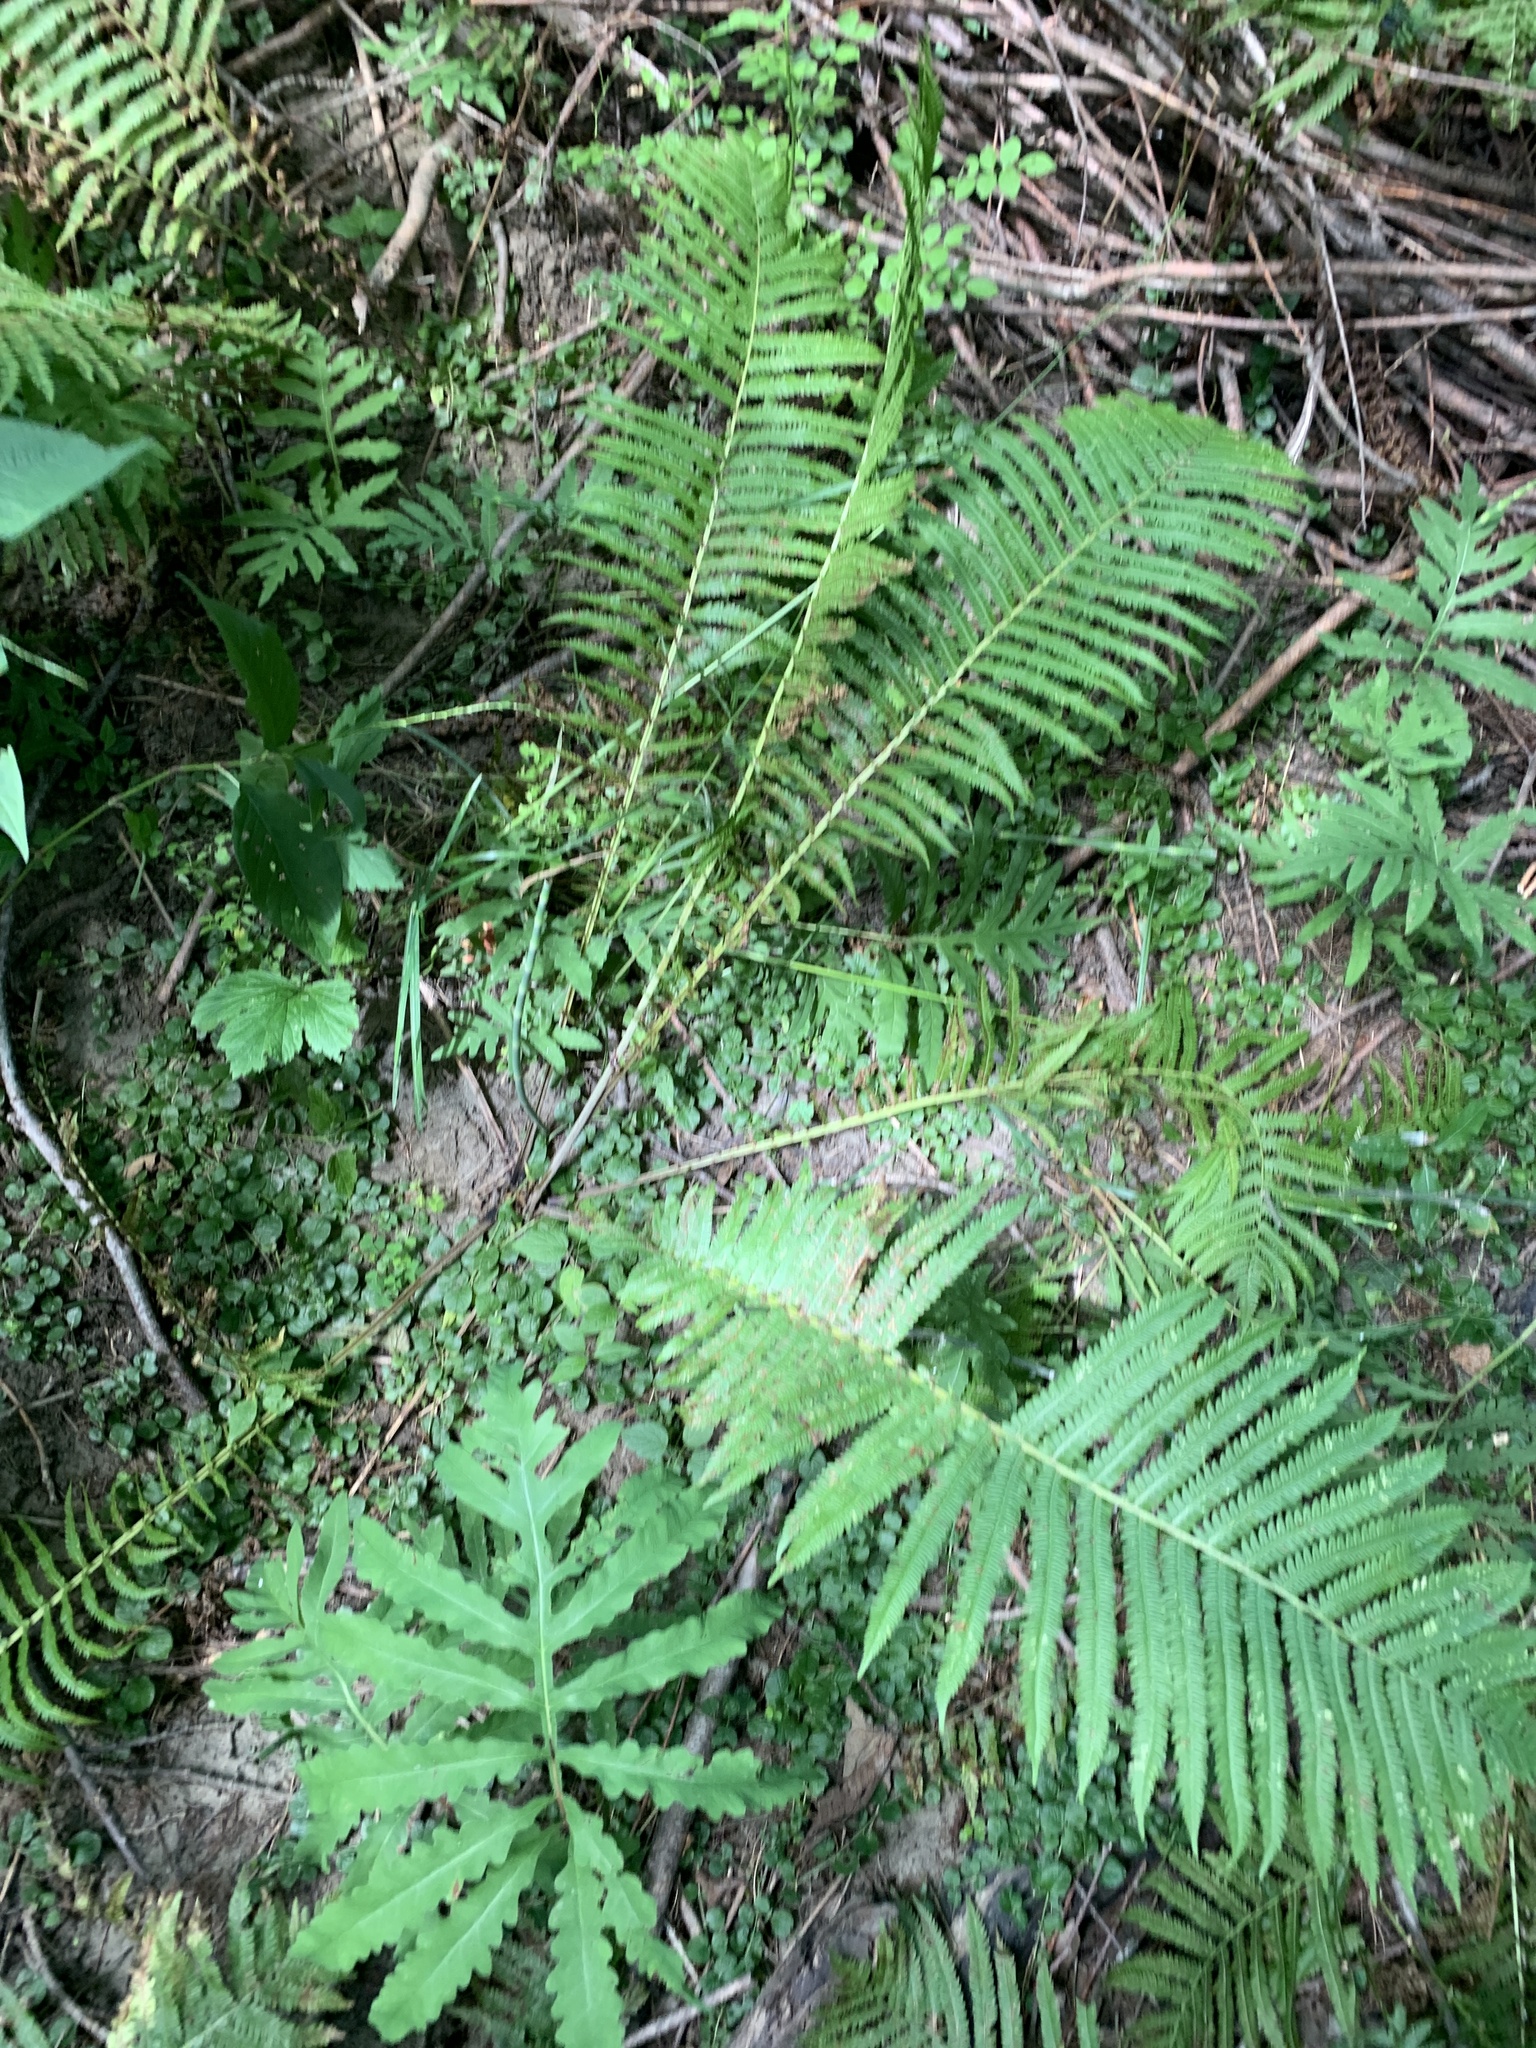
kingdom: Plantae
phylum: Tracheophyta
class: Polypodiopsida
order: Polypodiales
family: Onocleaceae
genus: Matteuccia
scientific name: Matteuccia struthiopteris
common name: Ostrich fern
